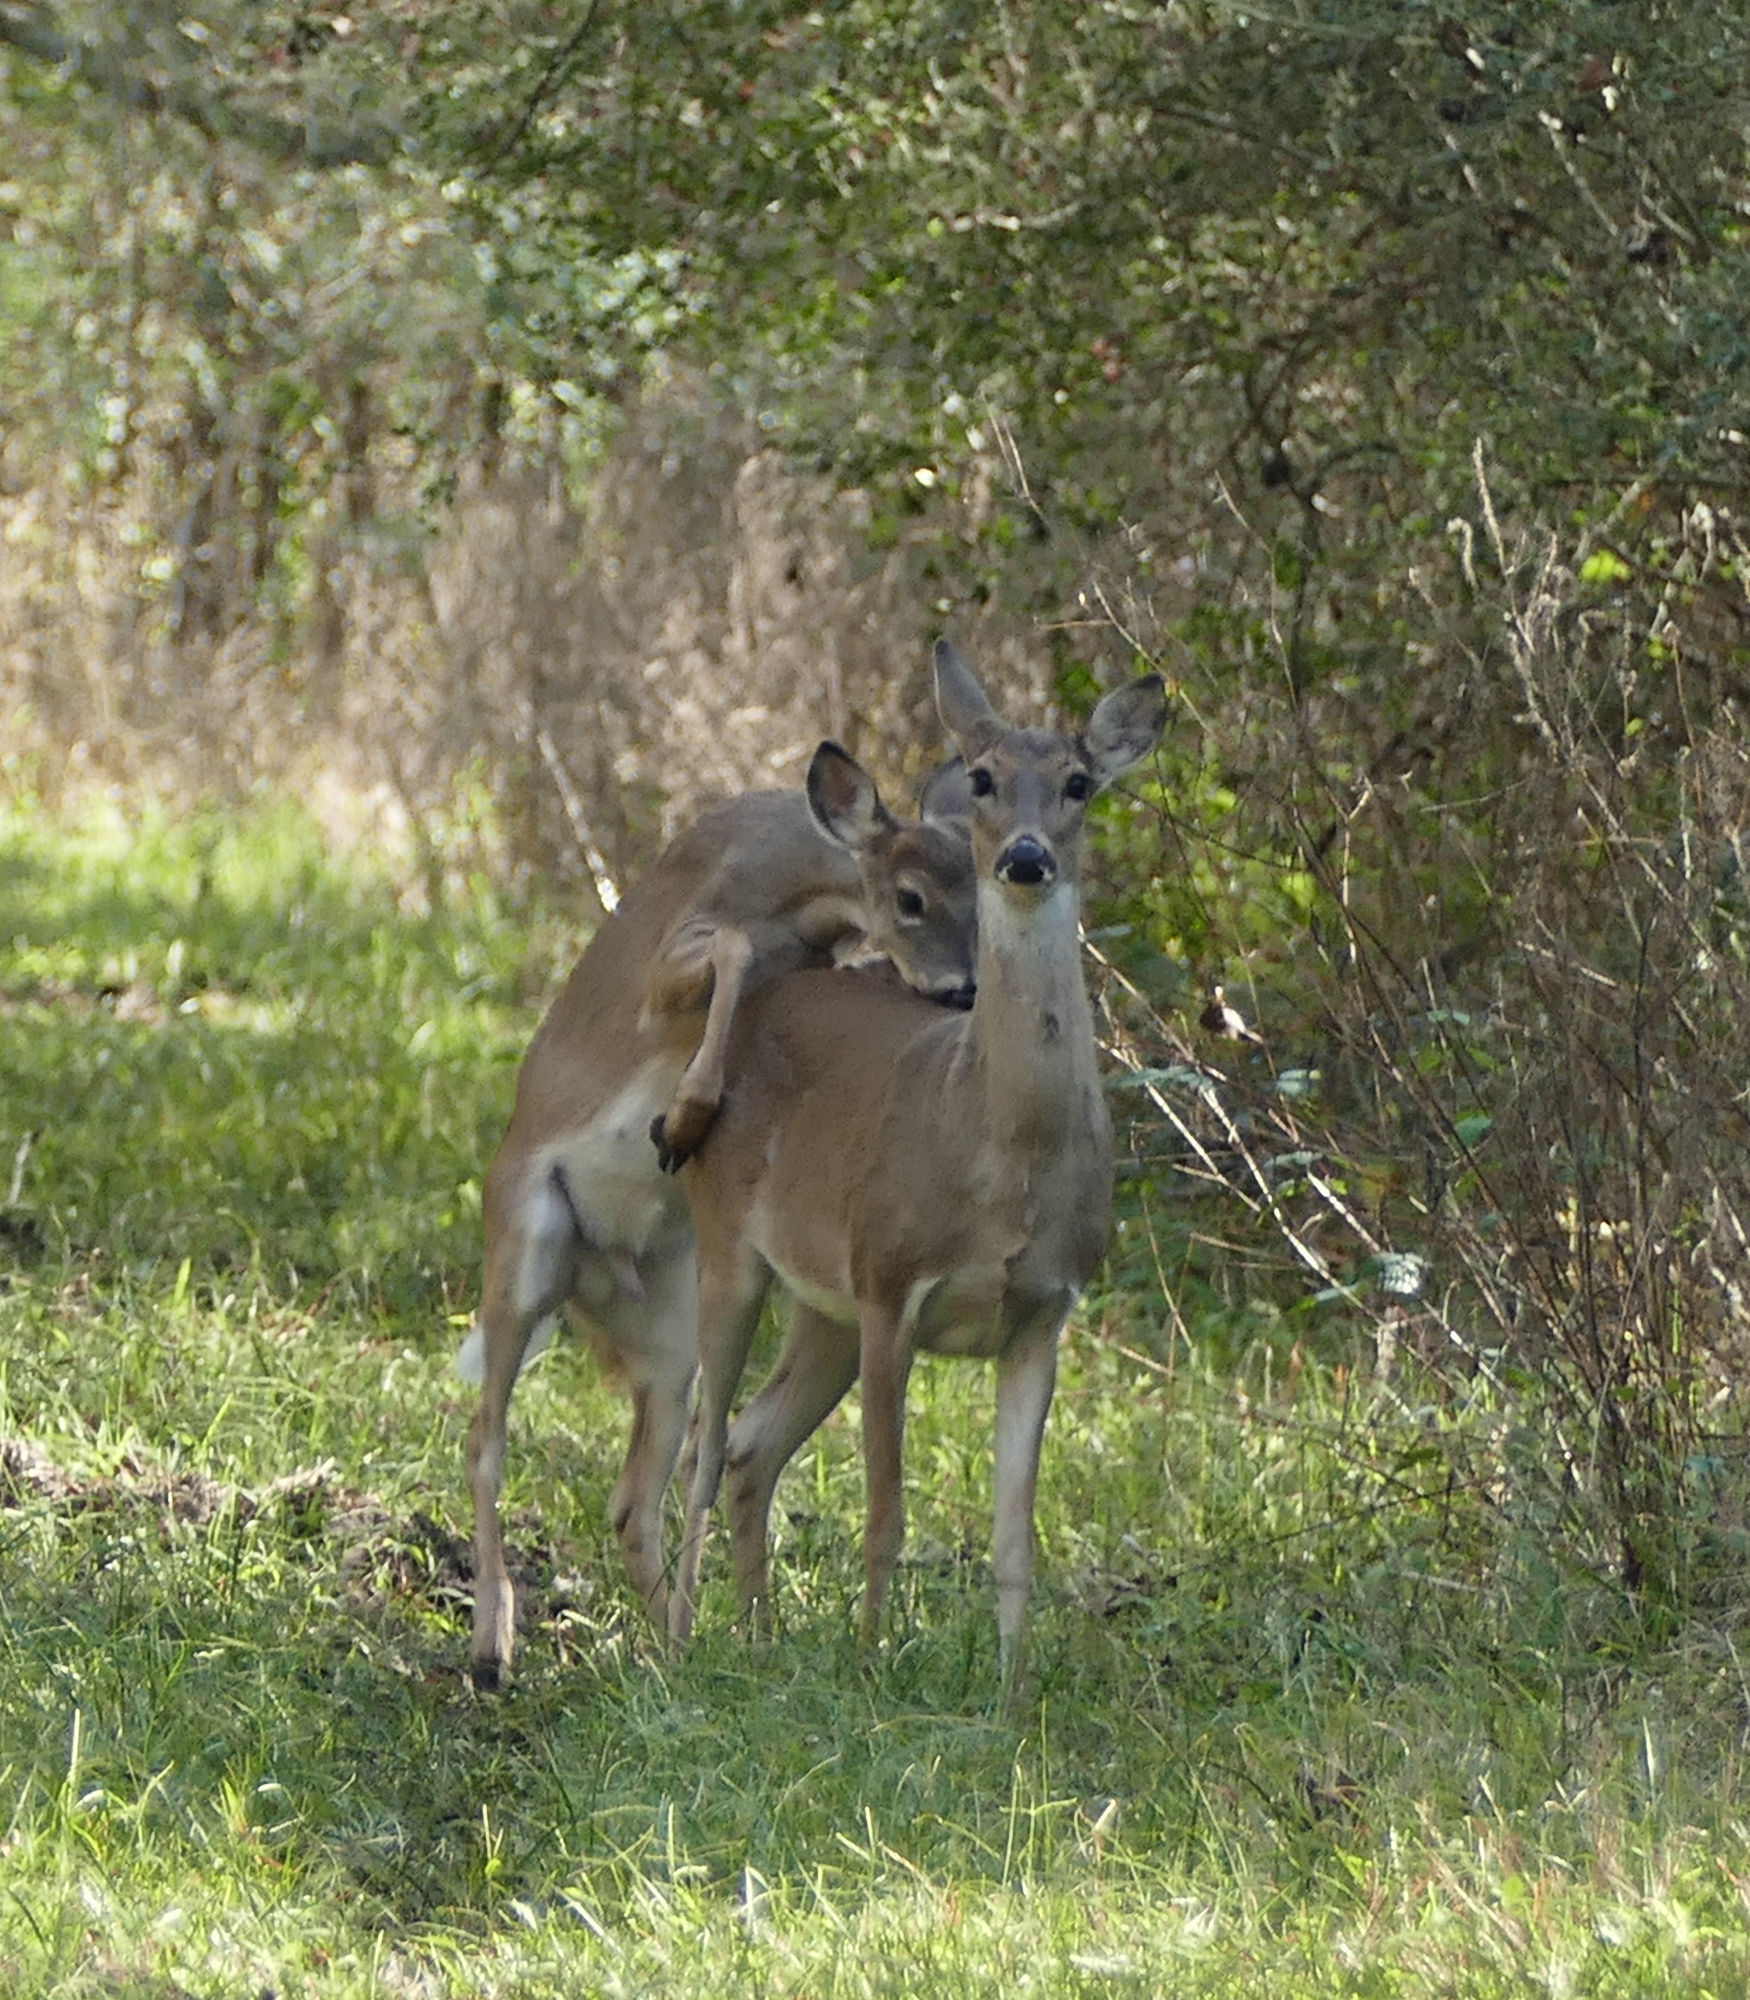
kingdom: Animalia
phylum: Chordata
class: Mammalia
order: Artiodactyla
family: Cervidae
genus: Odocoileus
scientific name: Odocoileus virginianus
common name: White-tailed deer
